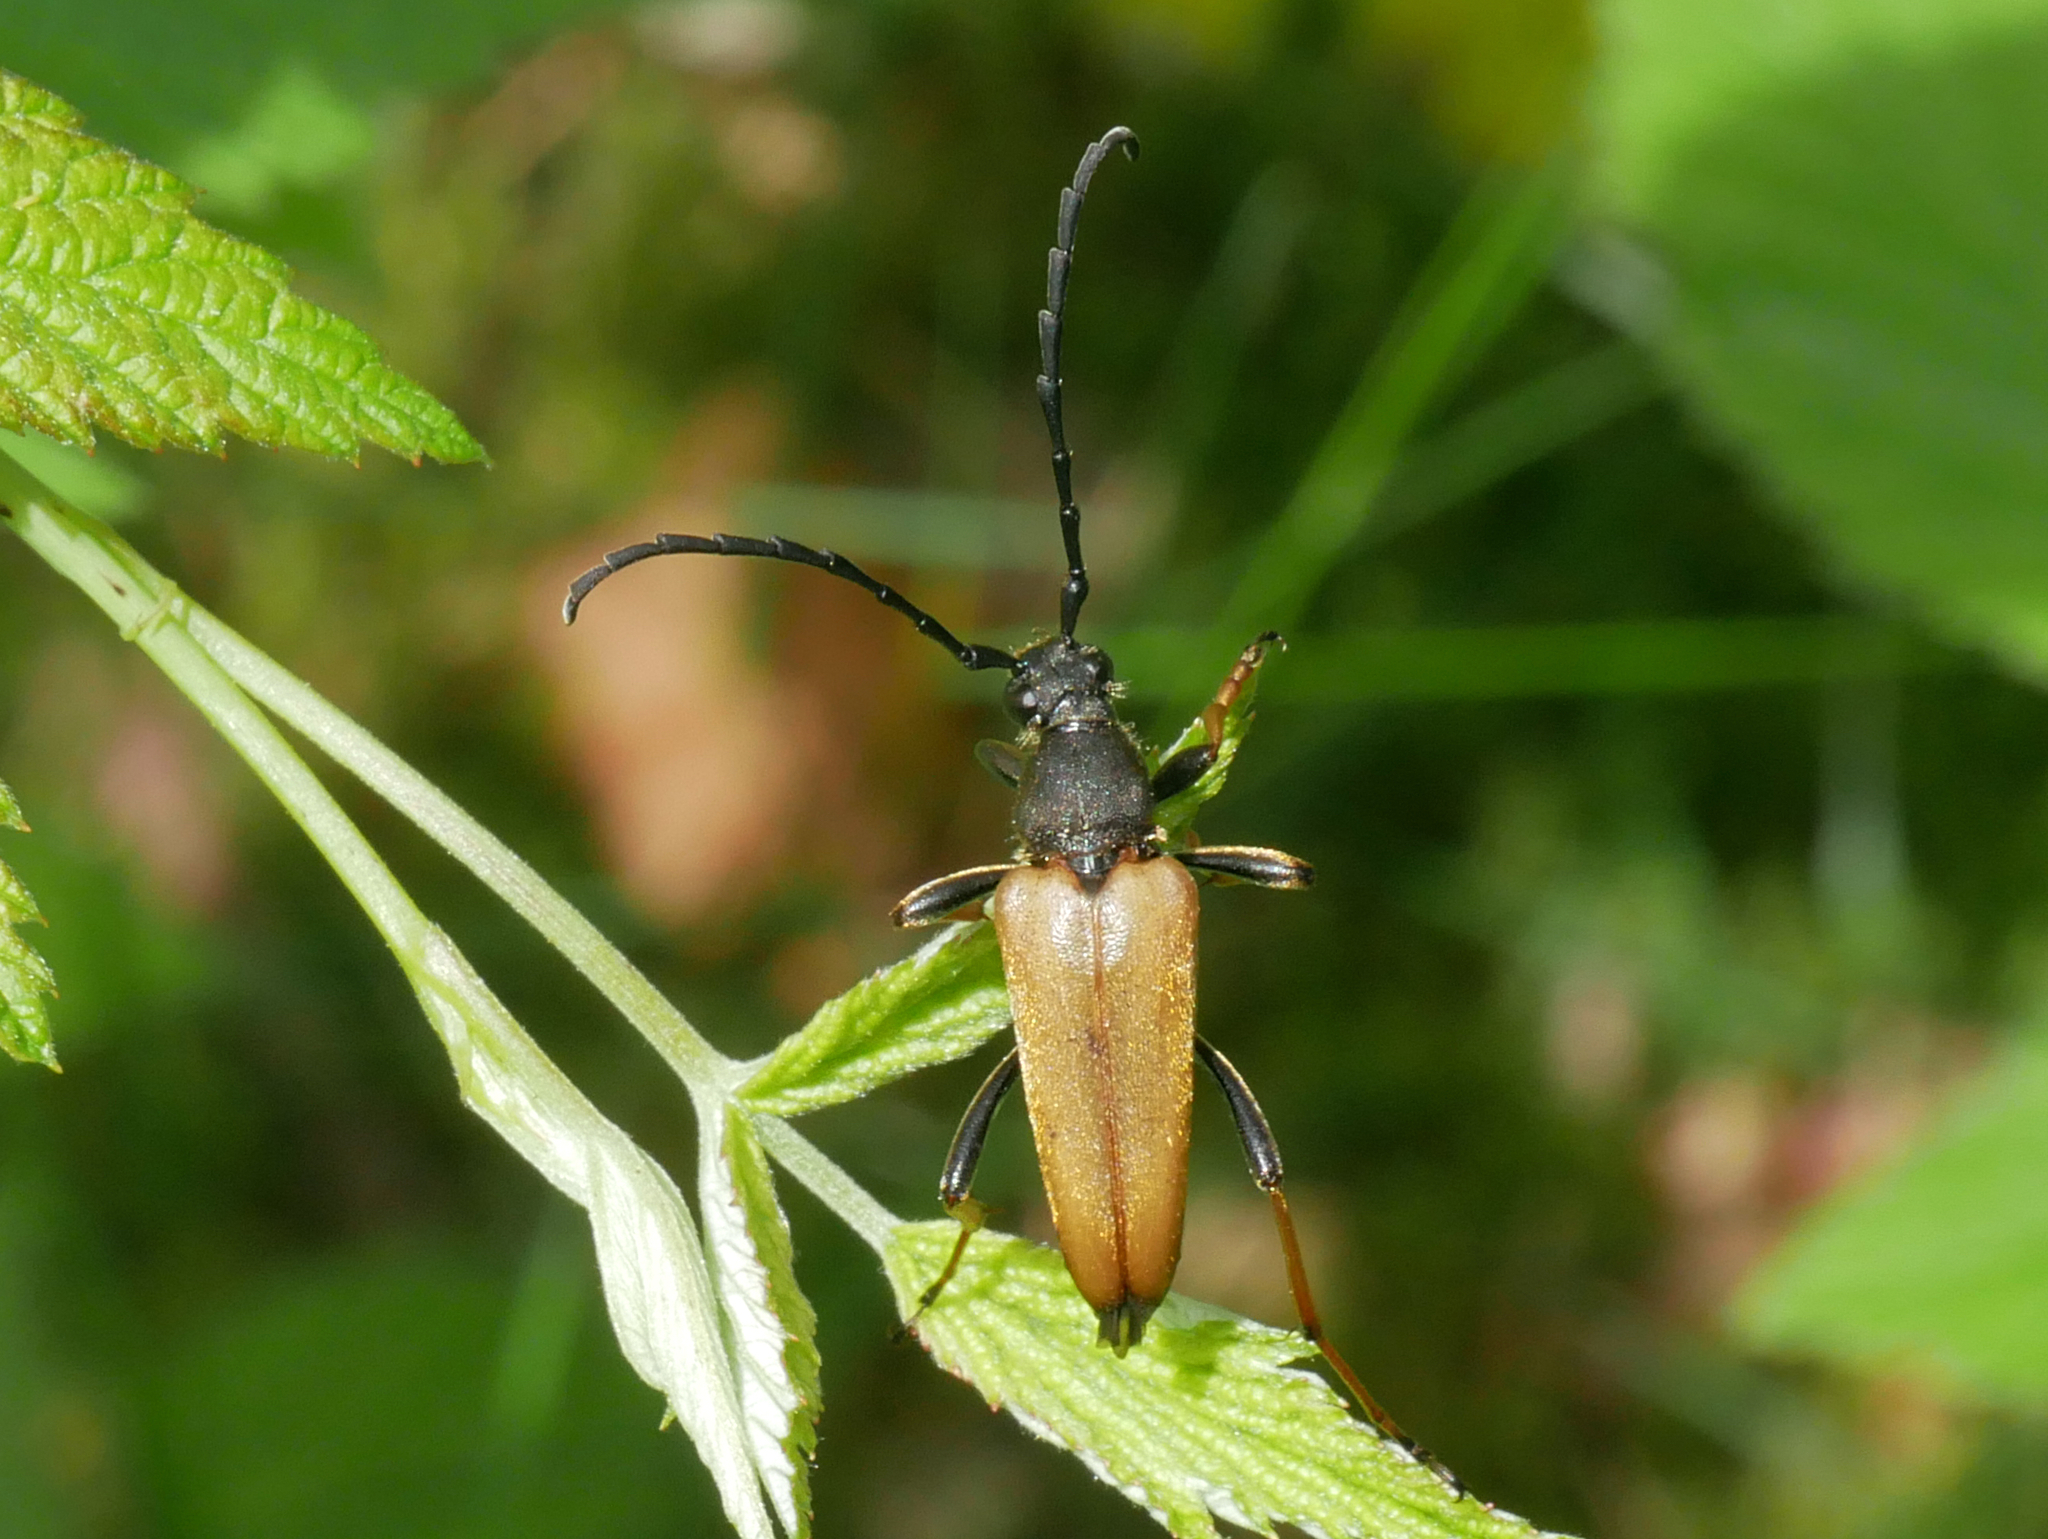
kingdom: Animalia
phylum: Arthropoda
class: Insecta
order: Coleoptera
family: Cerambycidae
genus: Stictoleptura
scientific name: Stictoleptura rubra
